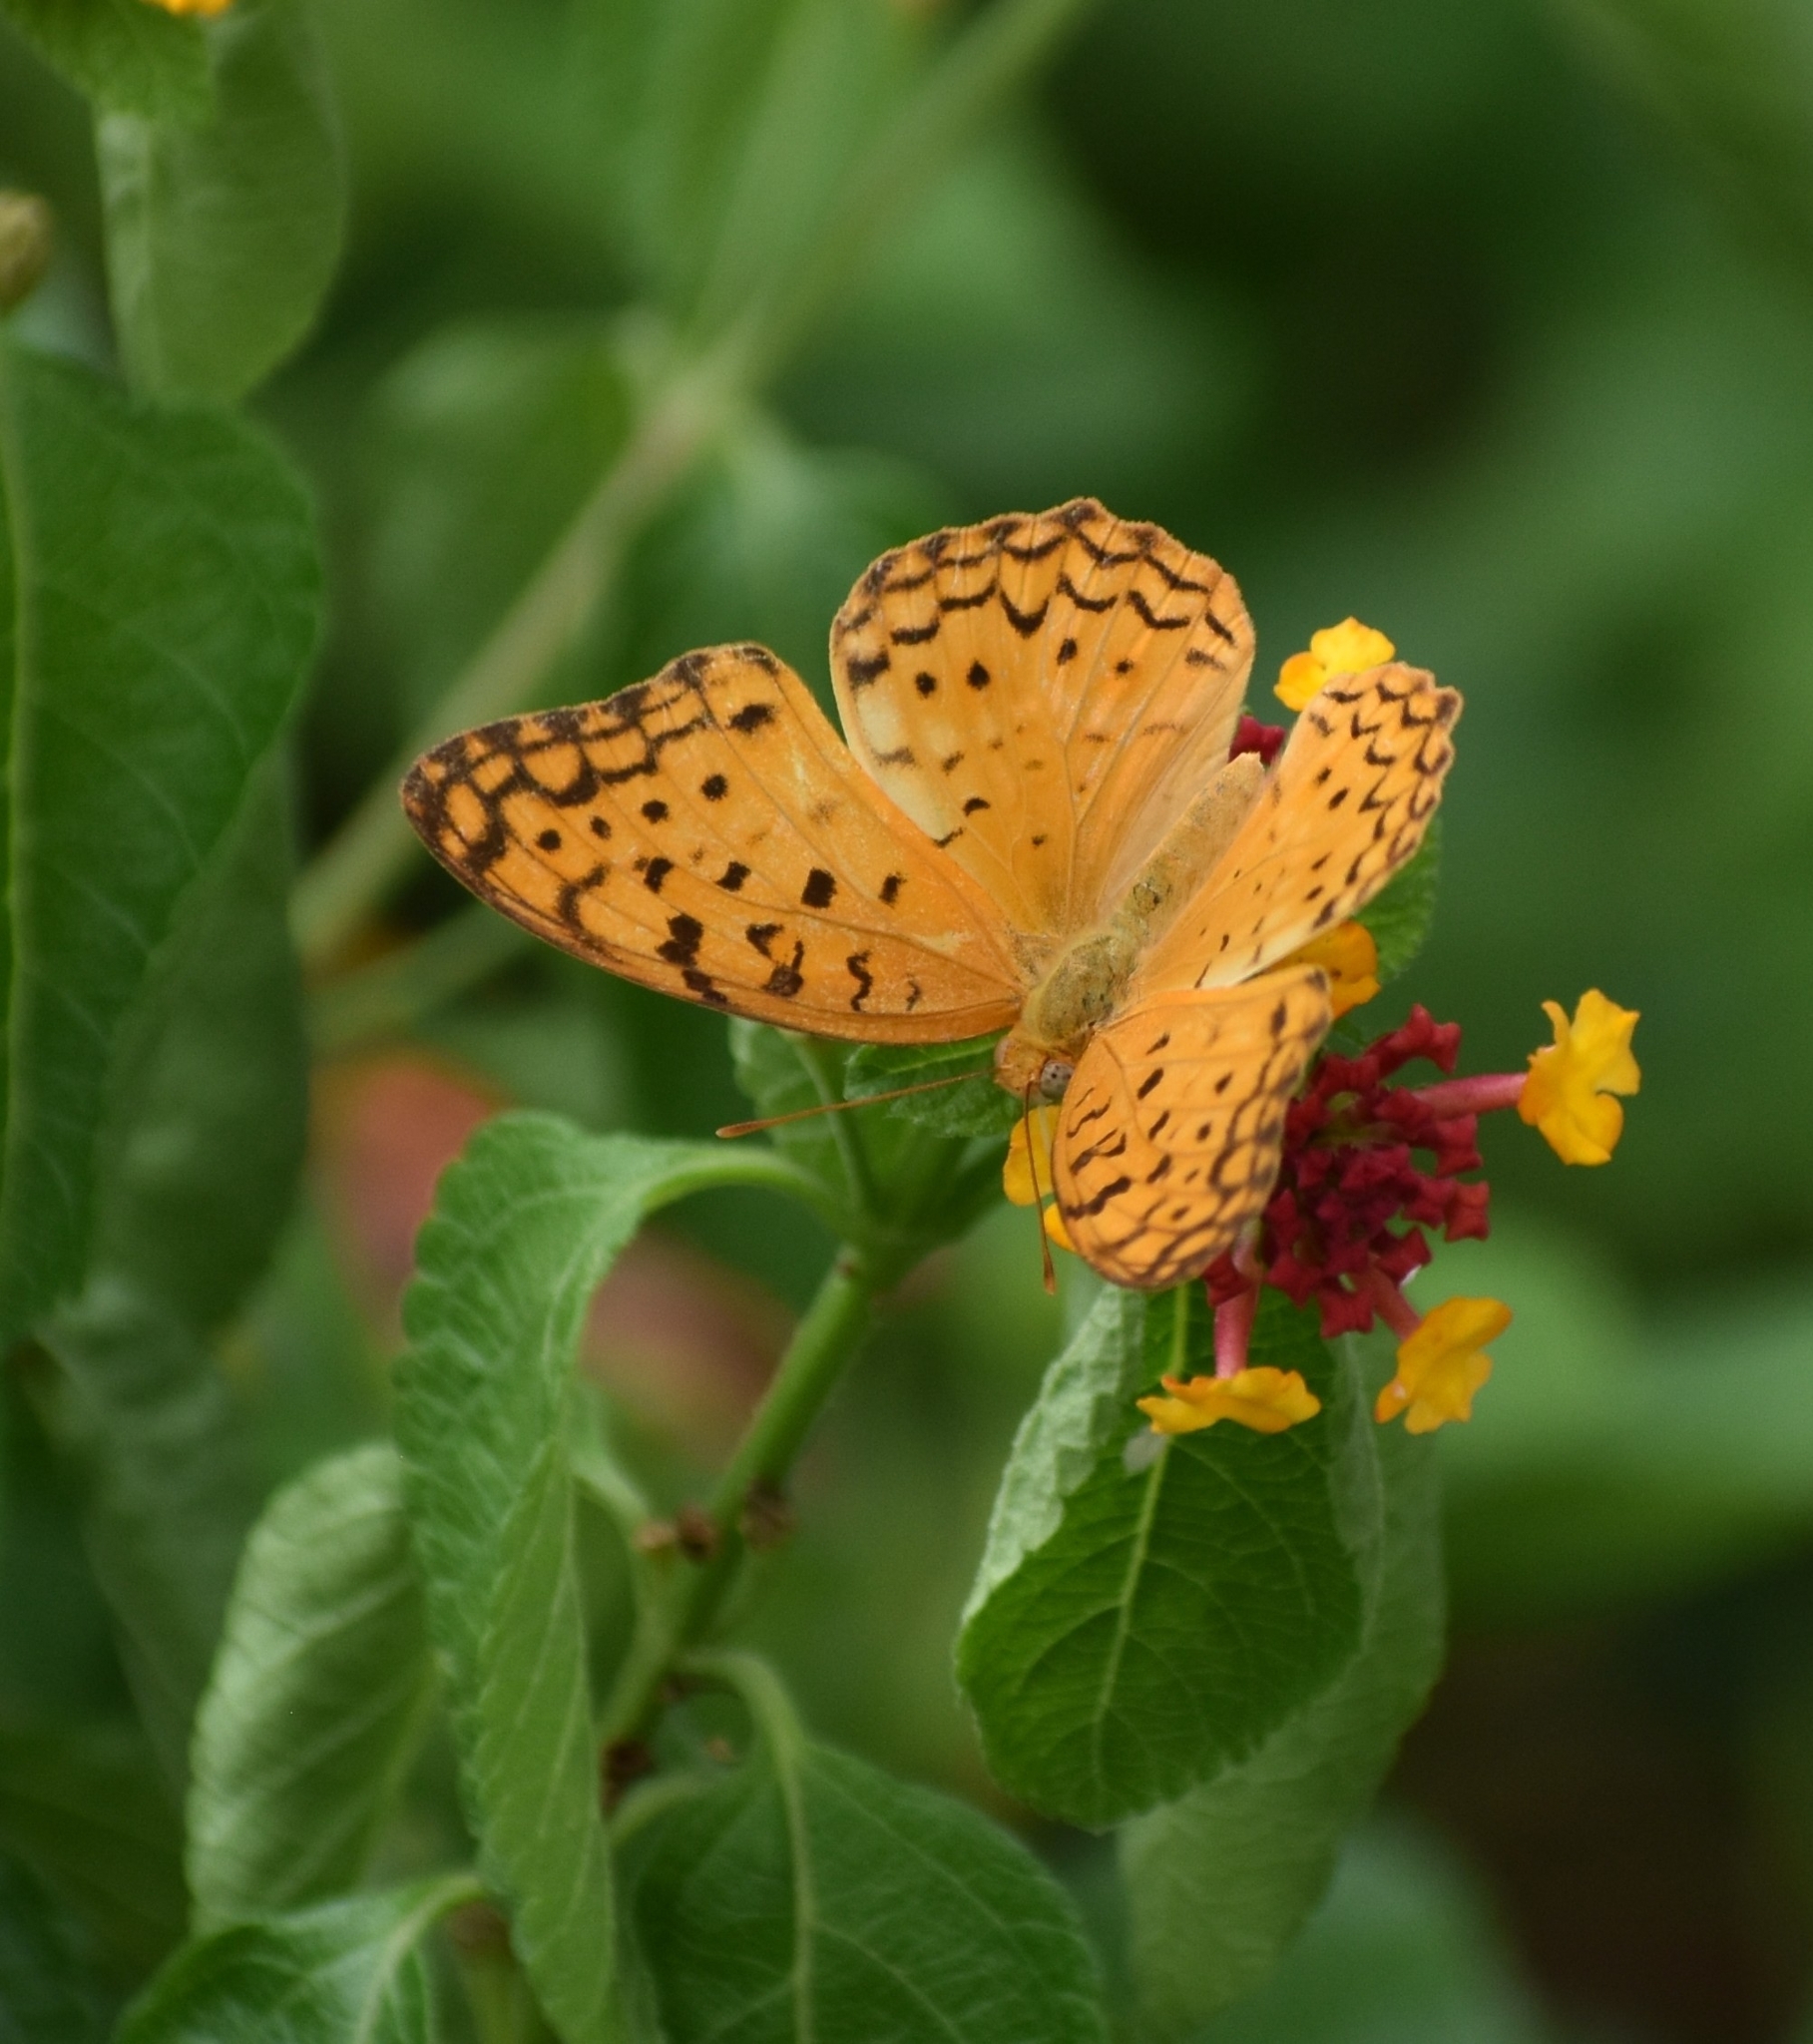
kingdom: Animalia
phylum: Arthropoda
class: Insecta
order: Lepidoptera
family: Nymphalidae
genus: Phalanta
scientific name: Phalanta phalantha
